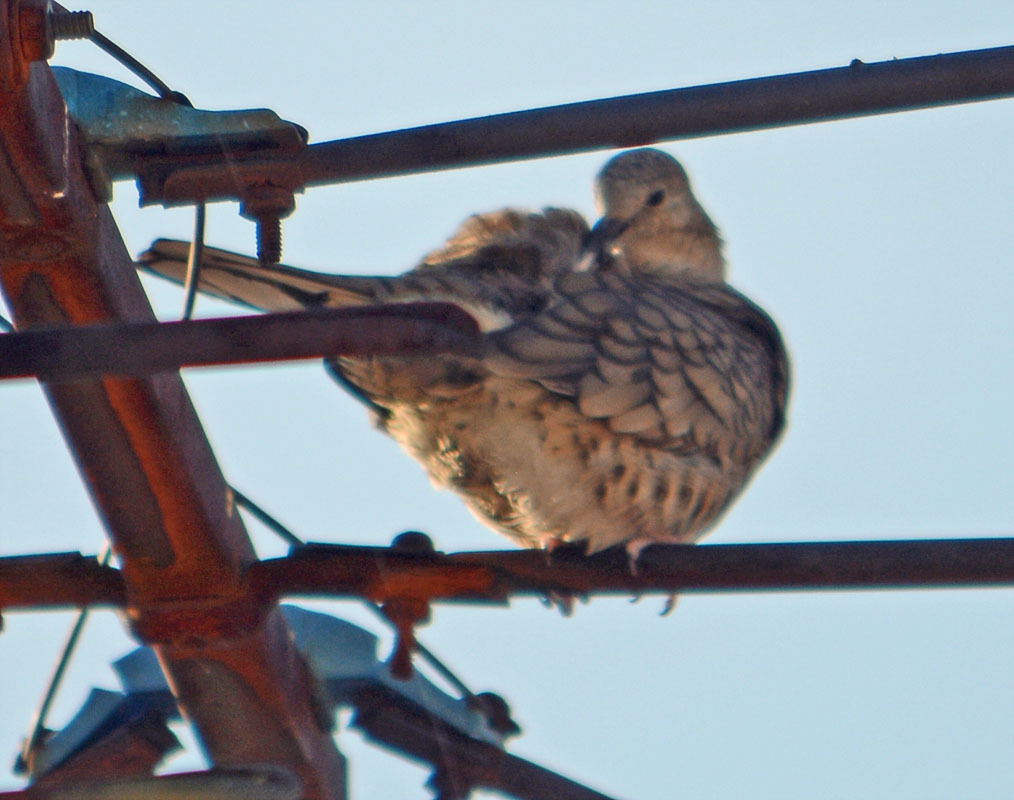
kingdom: Animalia
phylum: Chordata
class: Aves
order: Columbiformes
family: Columbidae
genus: Columbina
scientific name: Columbina inca
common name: Inca dove
